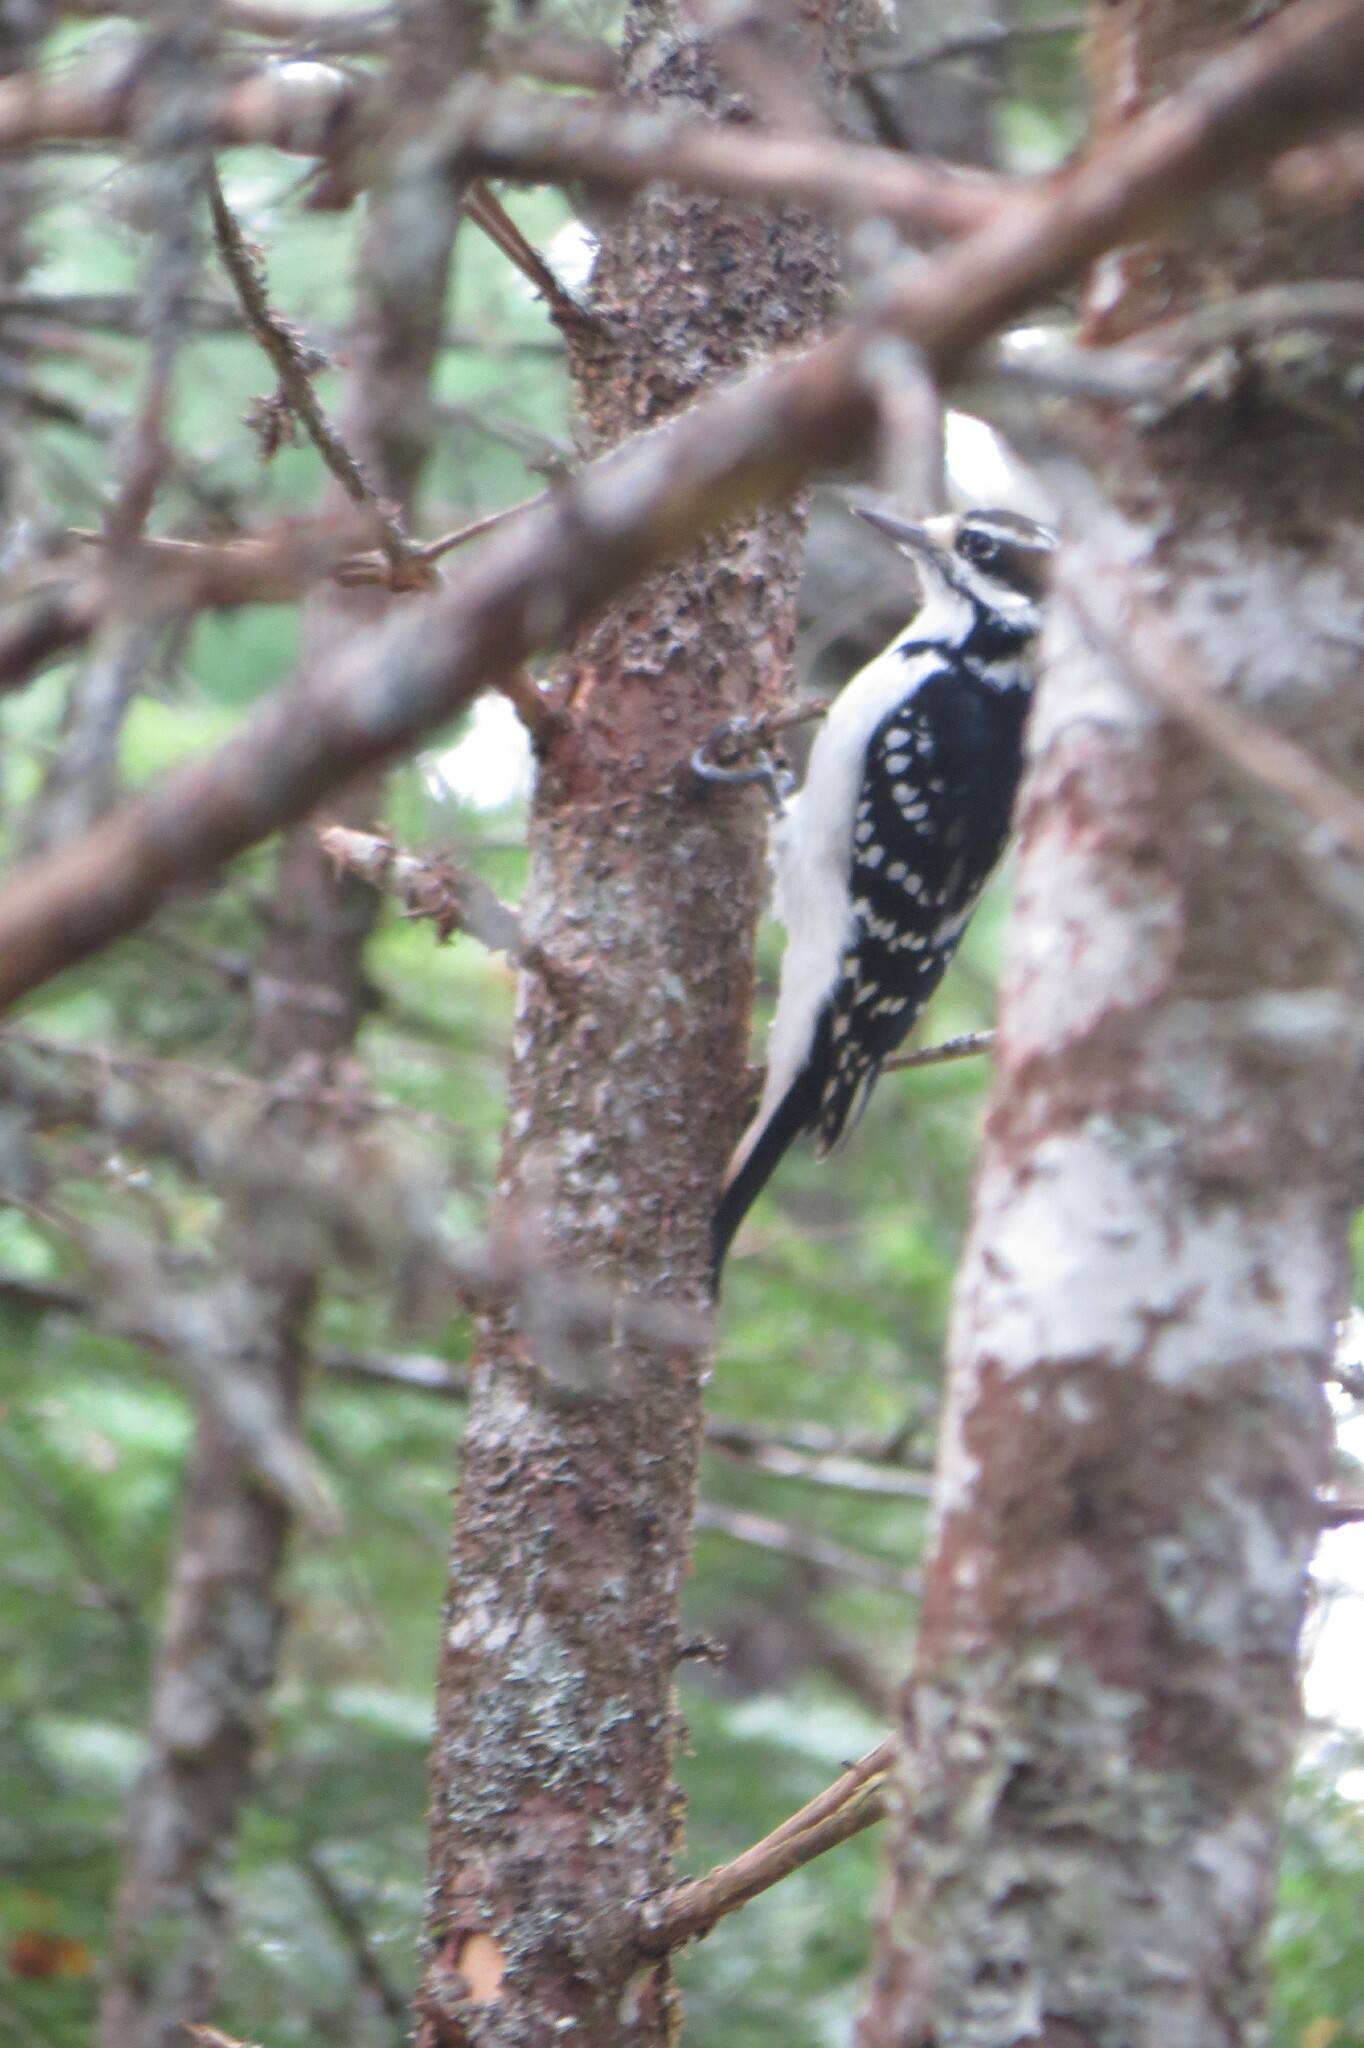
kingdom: Animalia
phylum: Chordata
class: Aves
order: Piciformes
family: Picidae
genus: Leuconotopicus
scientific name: Leuconotopicus villosus
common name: Hairy woodpecker
